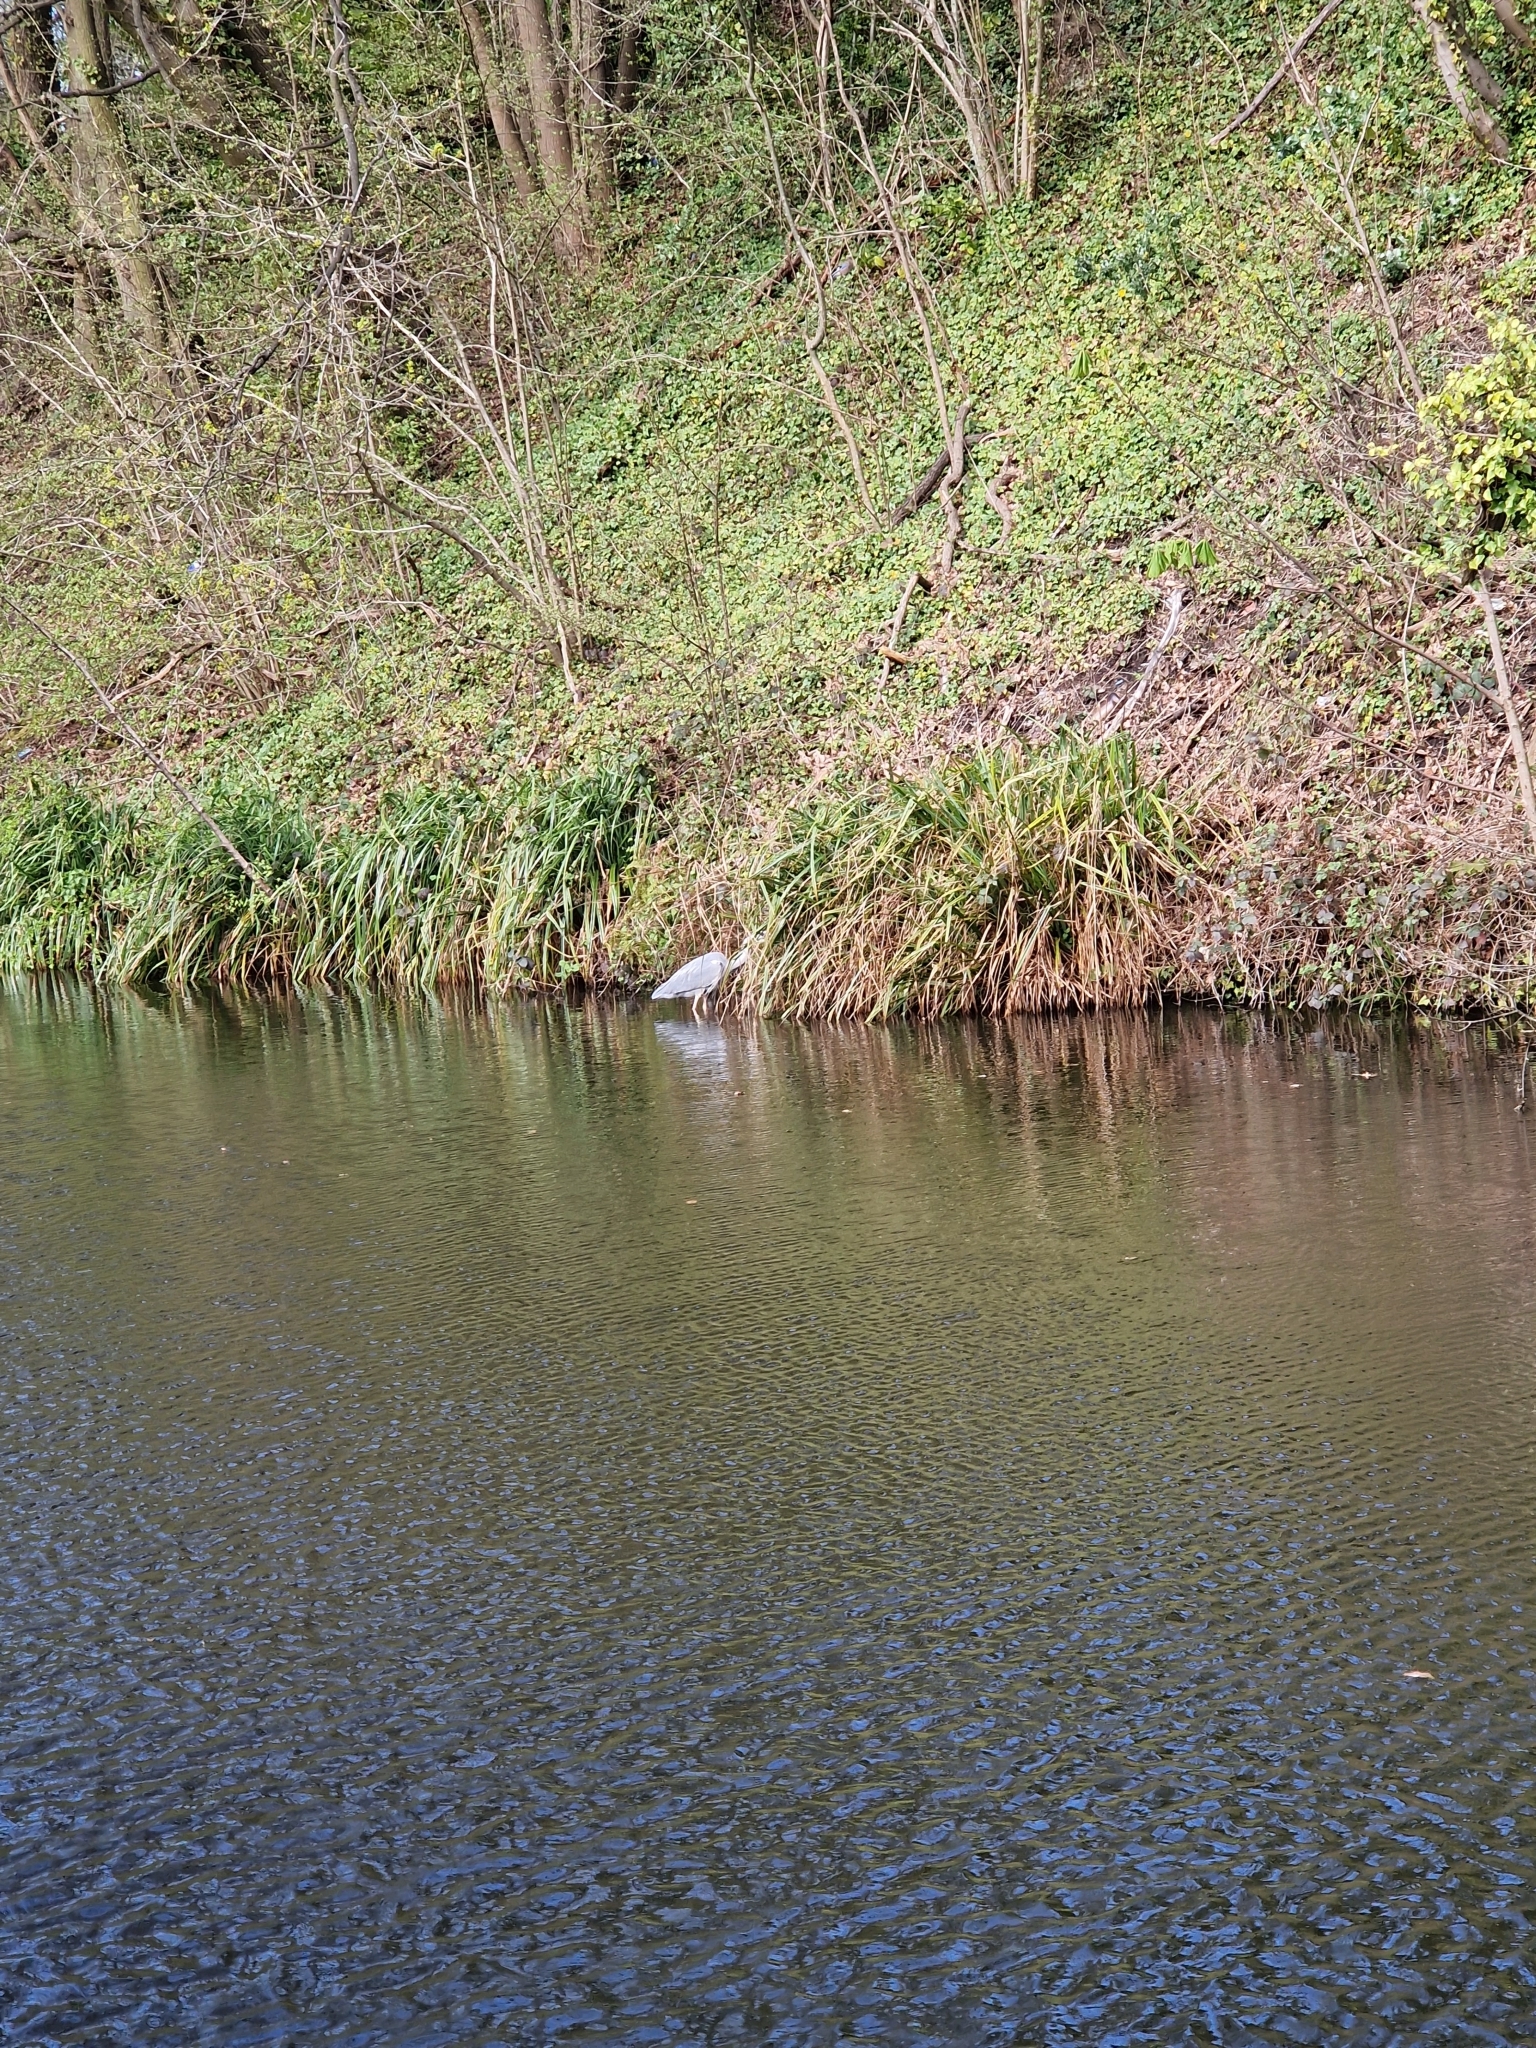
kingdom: Animalia
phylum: Chordata
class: Aves
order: Pelecaniformes
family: Ardeidae
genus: Ardea
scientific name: Ardea cinerea
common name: Grey heron
